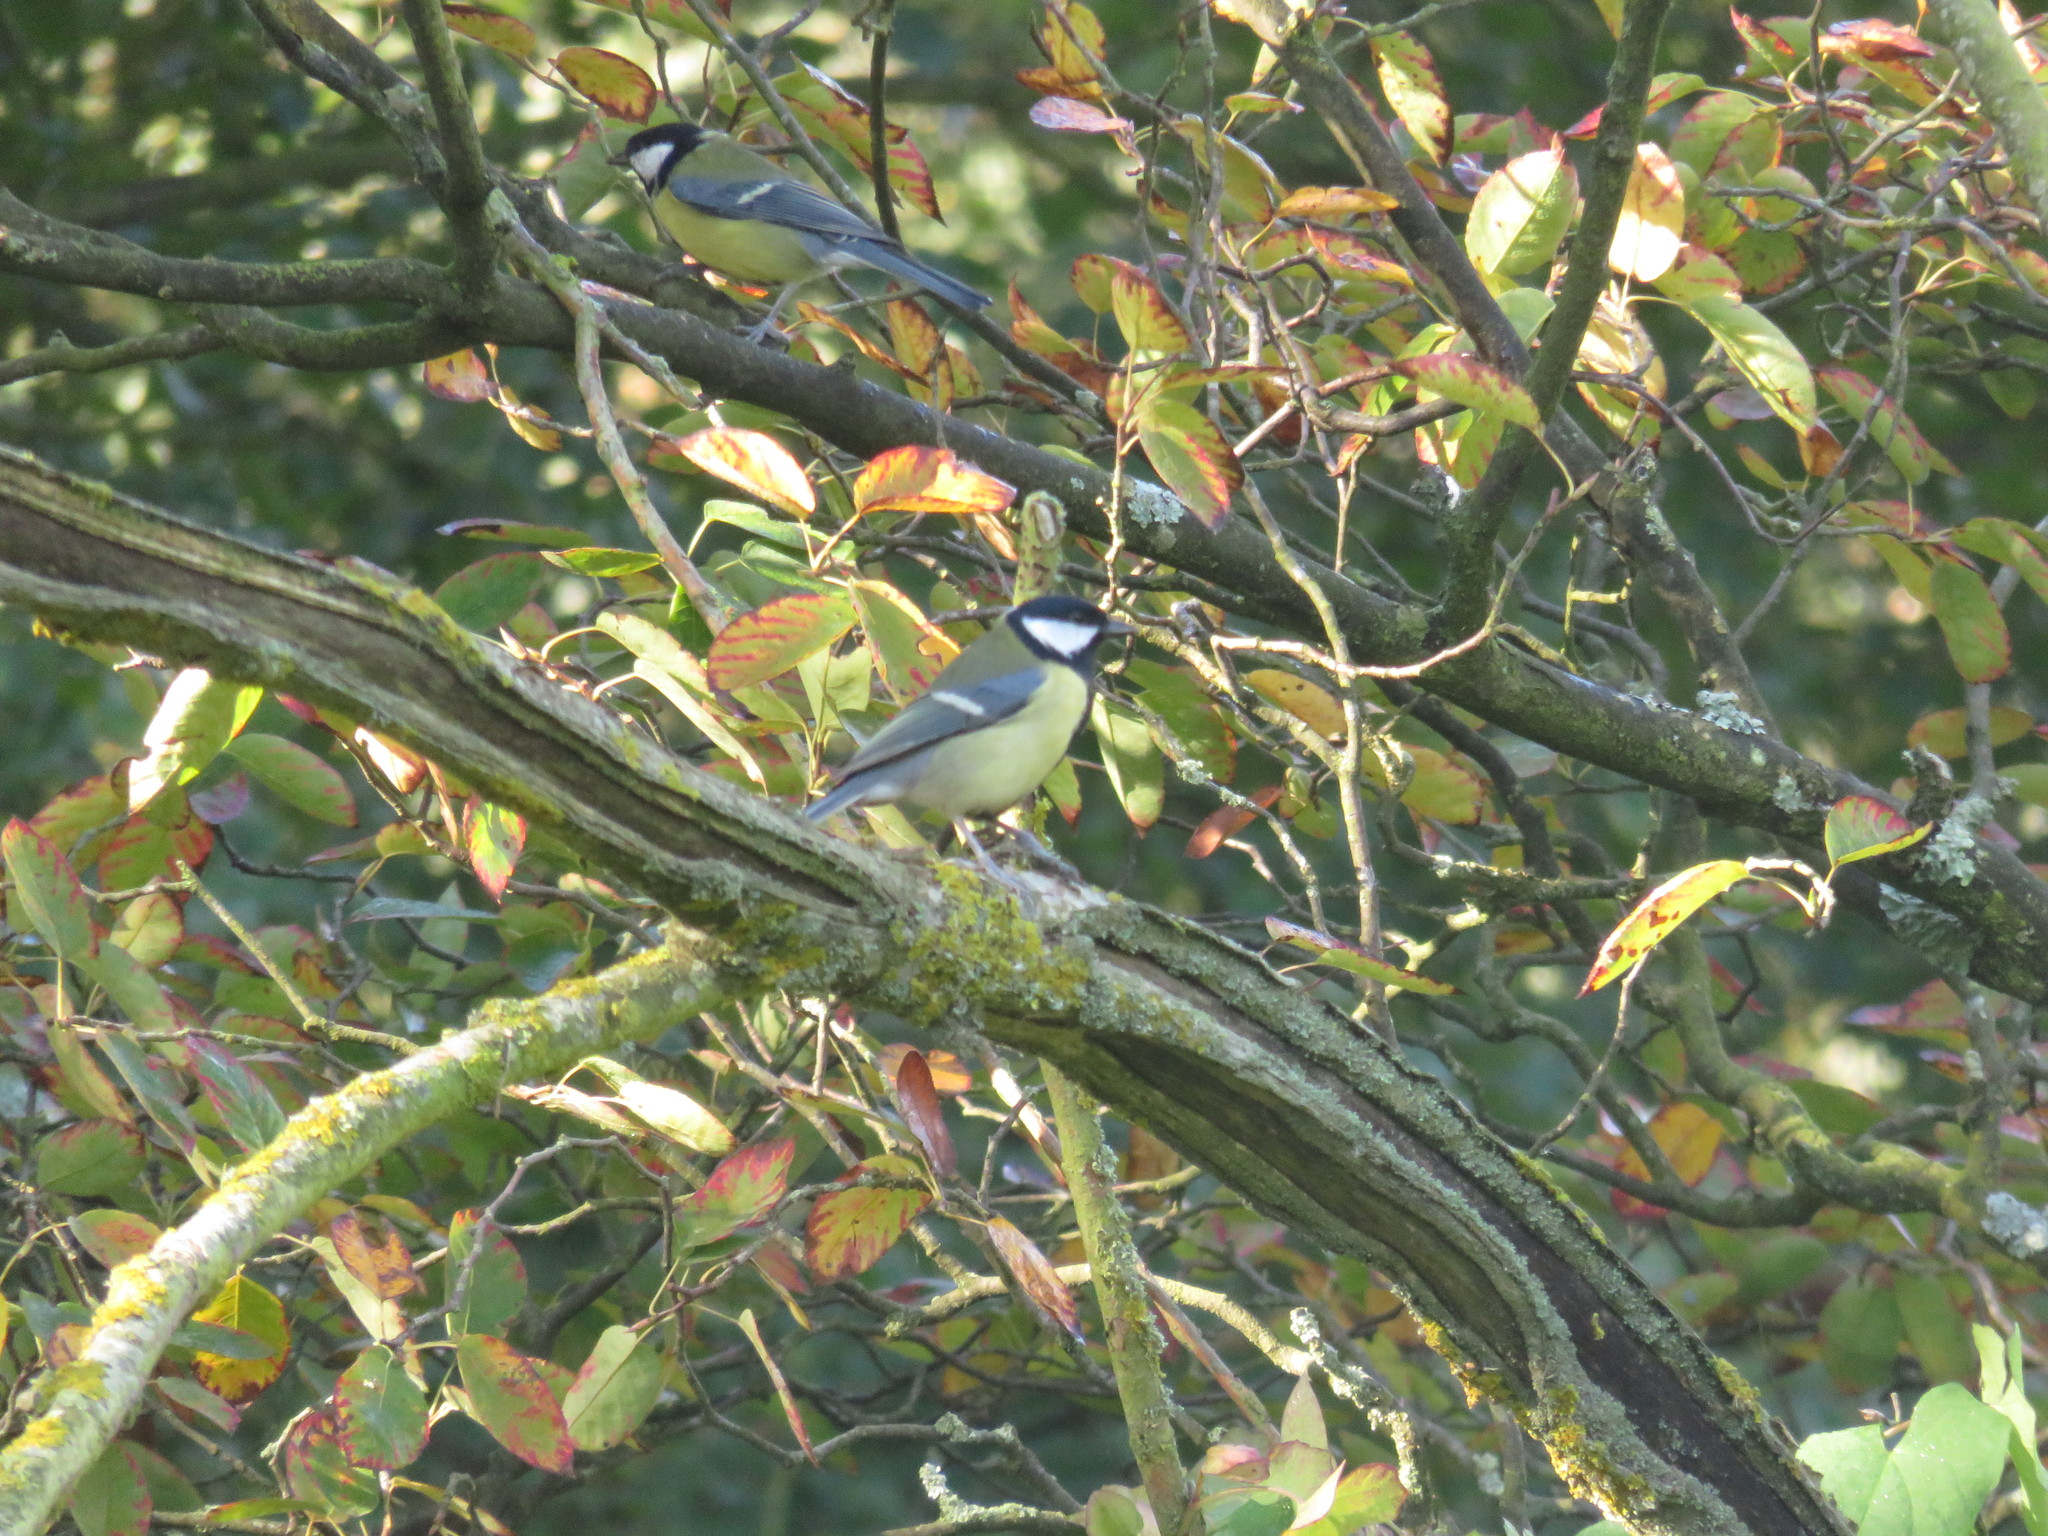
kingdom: Animalia
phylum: Chordata
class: Aves
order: Passeriformes
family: Paridae
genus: Parus
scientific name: Parus major
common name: Great tit
